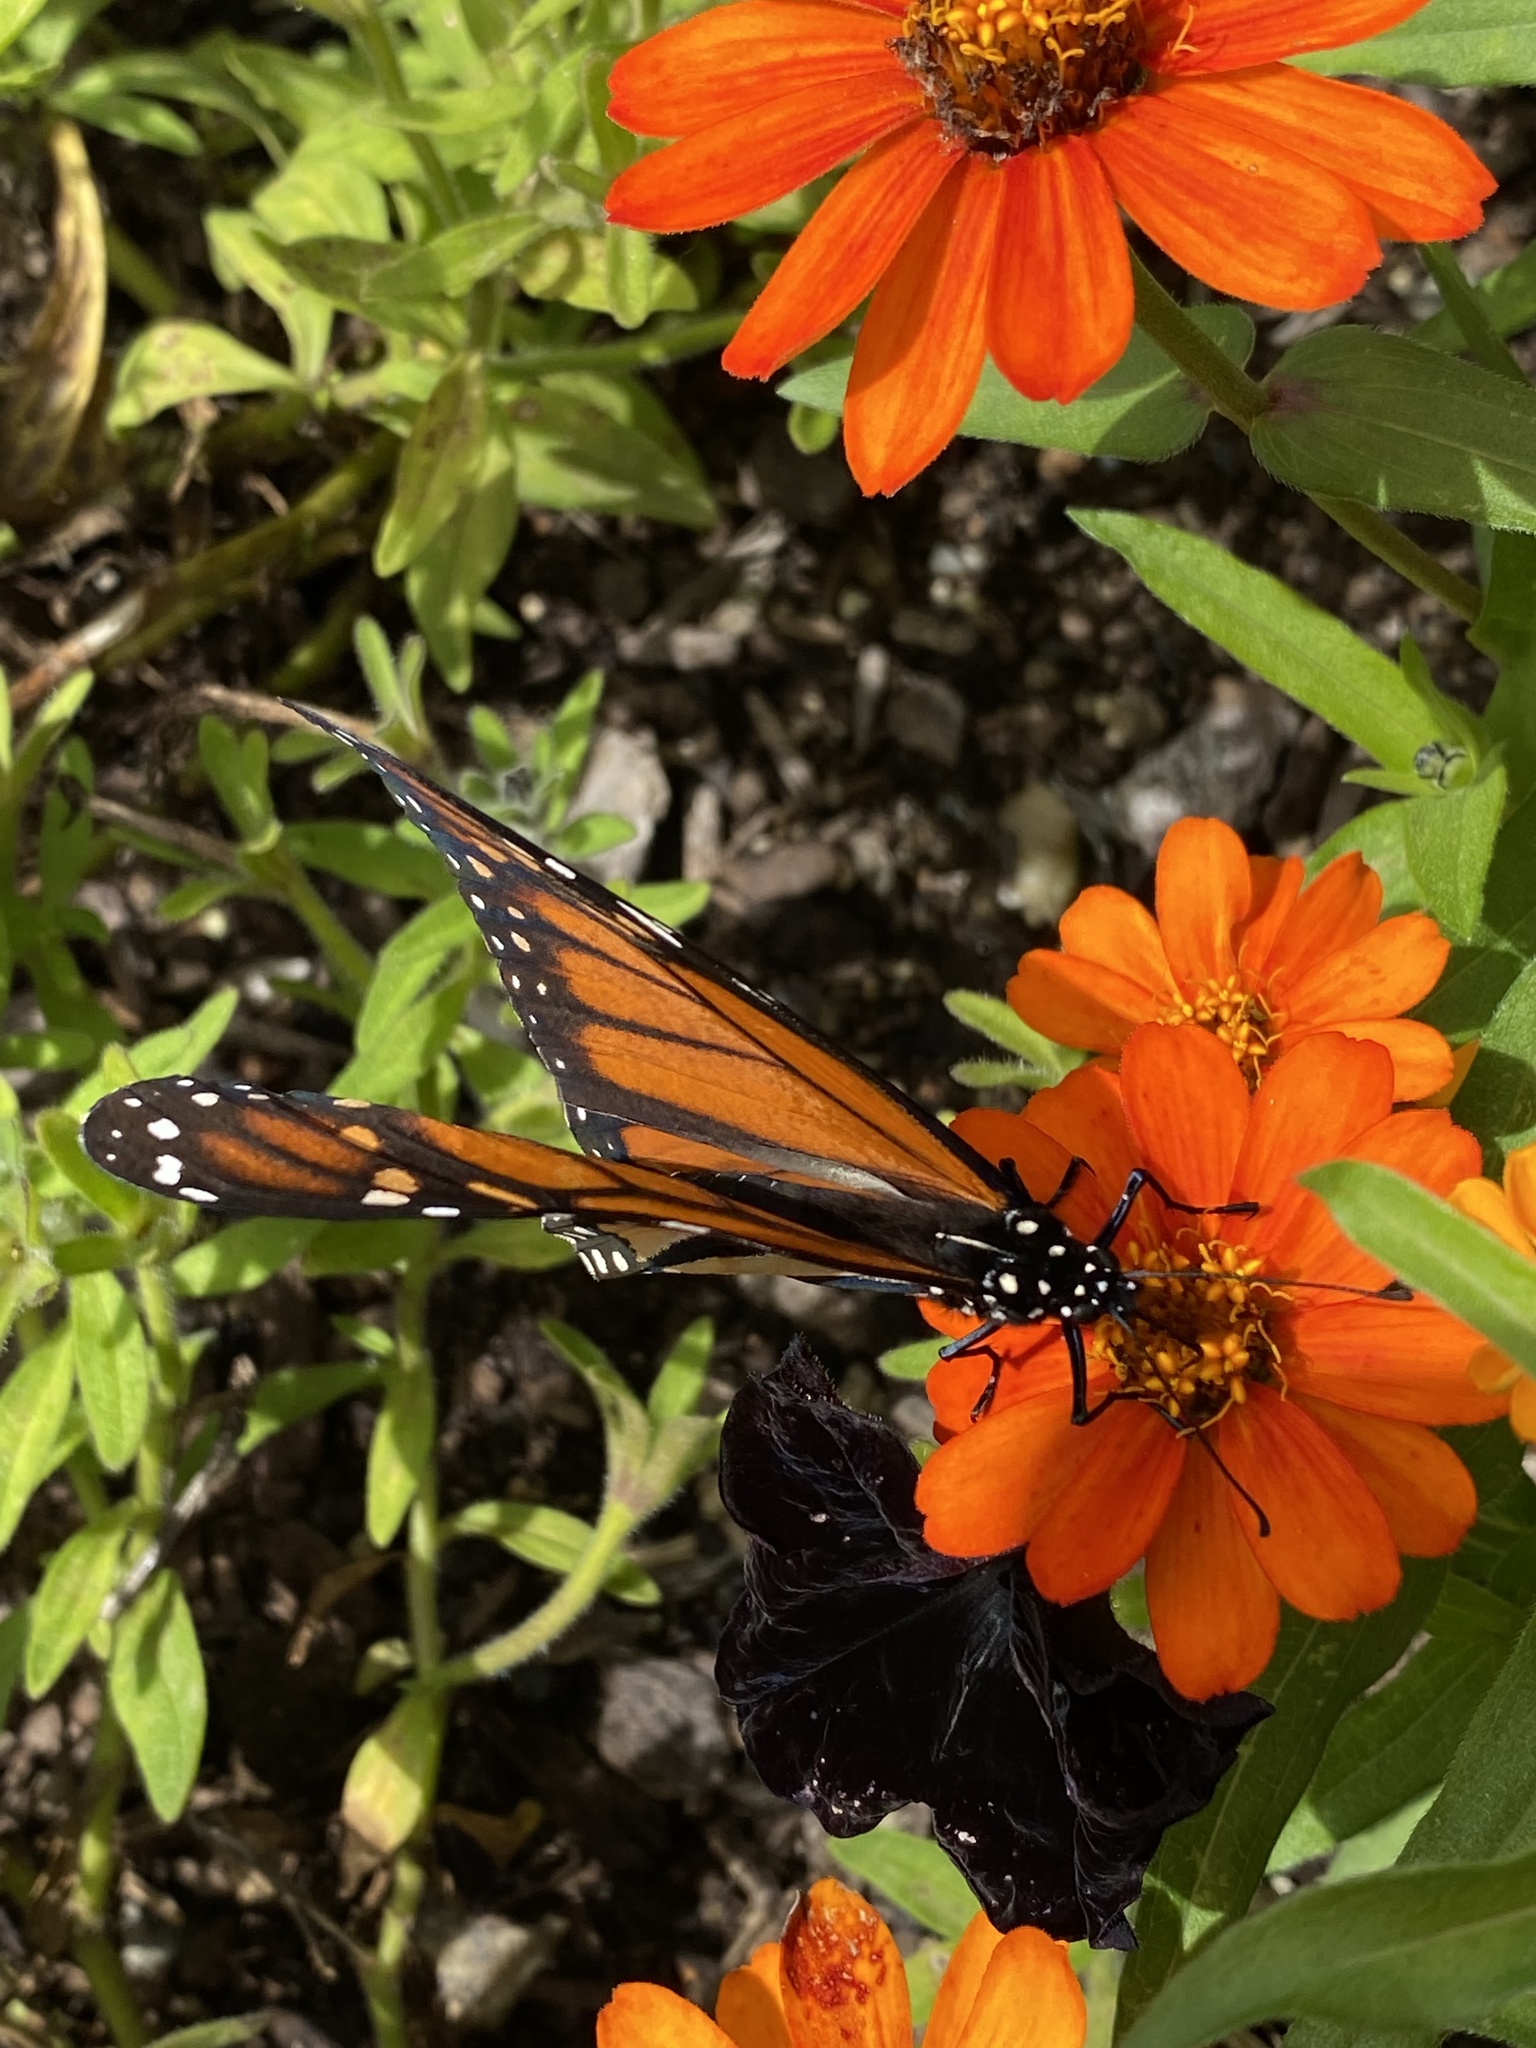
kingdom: Animalia
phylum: Arthropoda
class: Insecta
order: Lepidoptera
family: Nymphalidae
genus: Danaus
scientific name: Danaus plexippus
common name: Monarch
